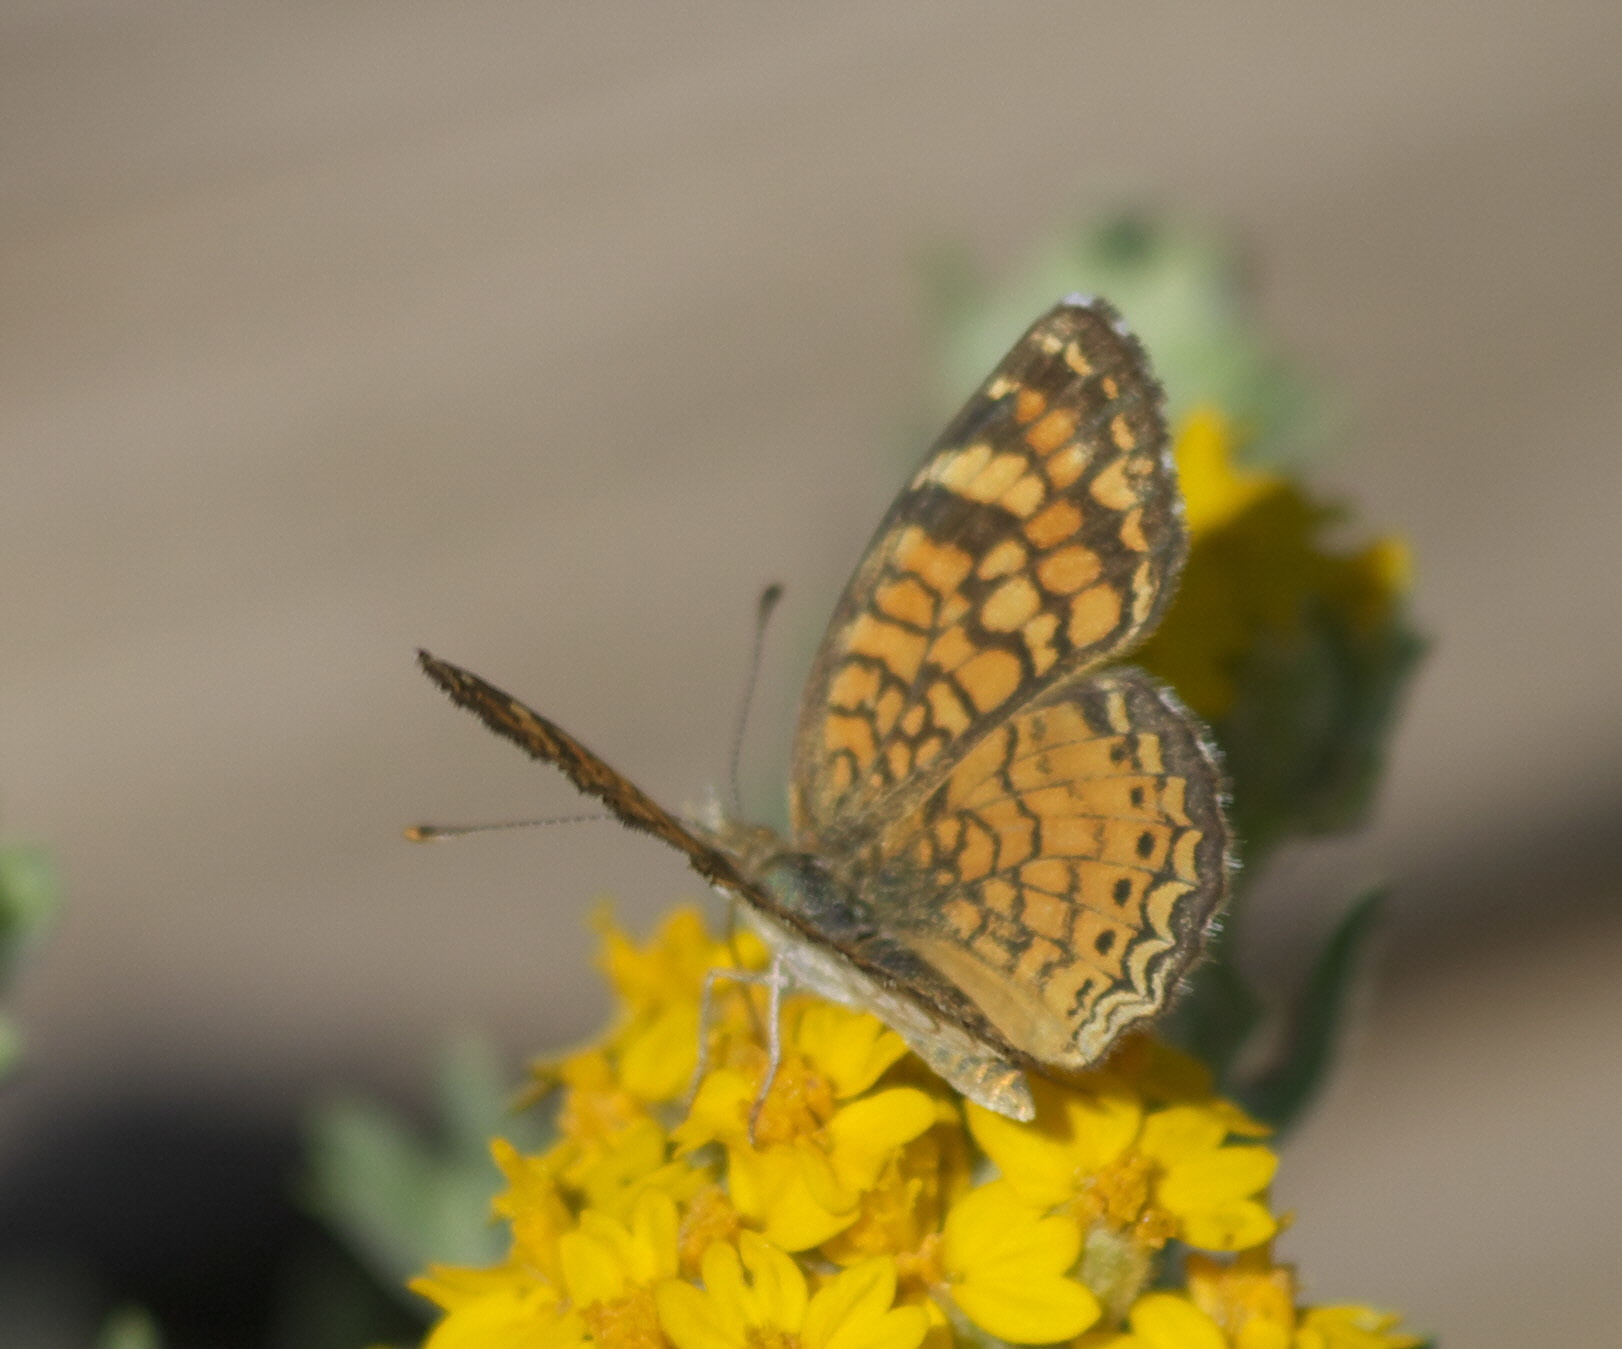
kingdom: Animalia
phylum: Arthropoda
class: Insecta
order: Lepidoptera
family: Nymphalidae
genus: Eresia
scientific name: Eresia aveyrona
